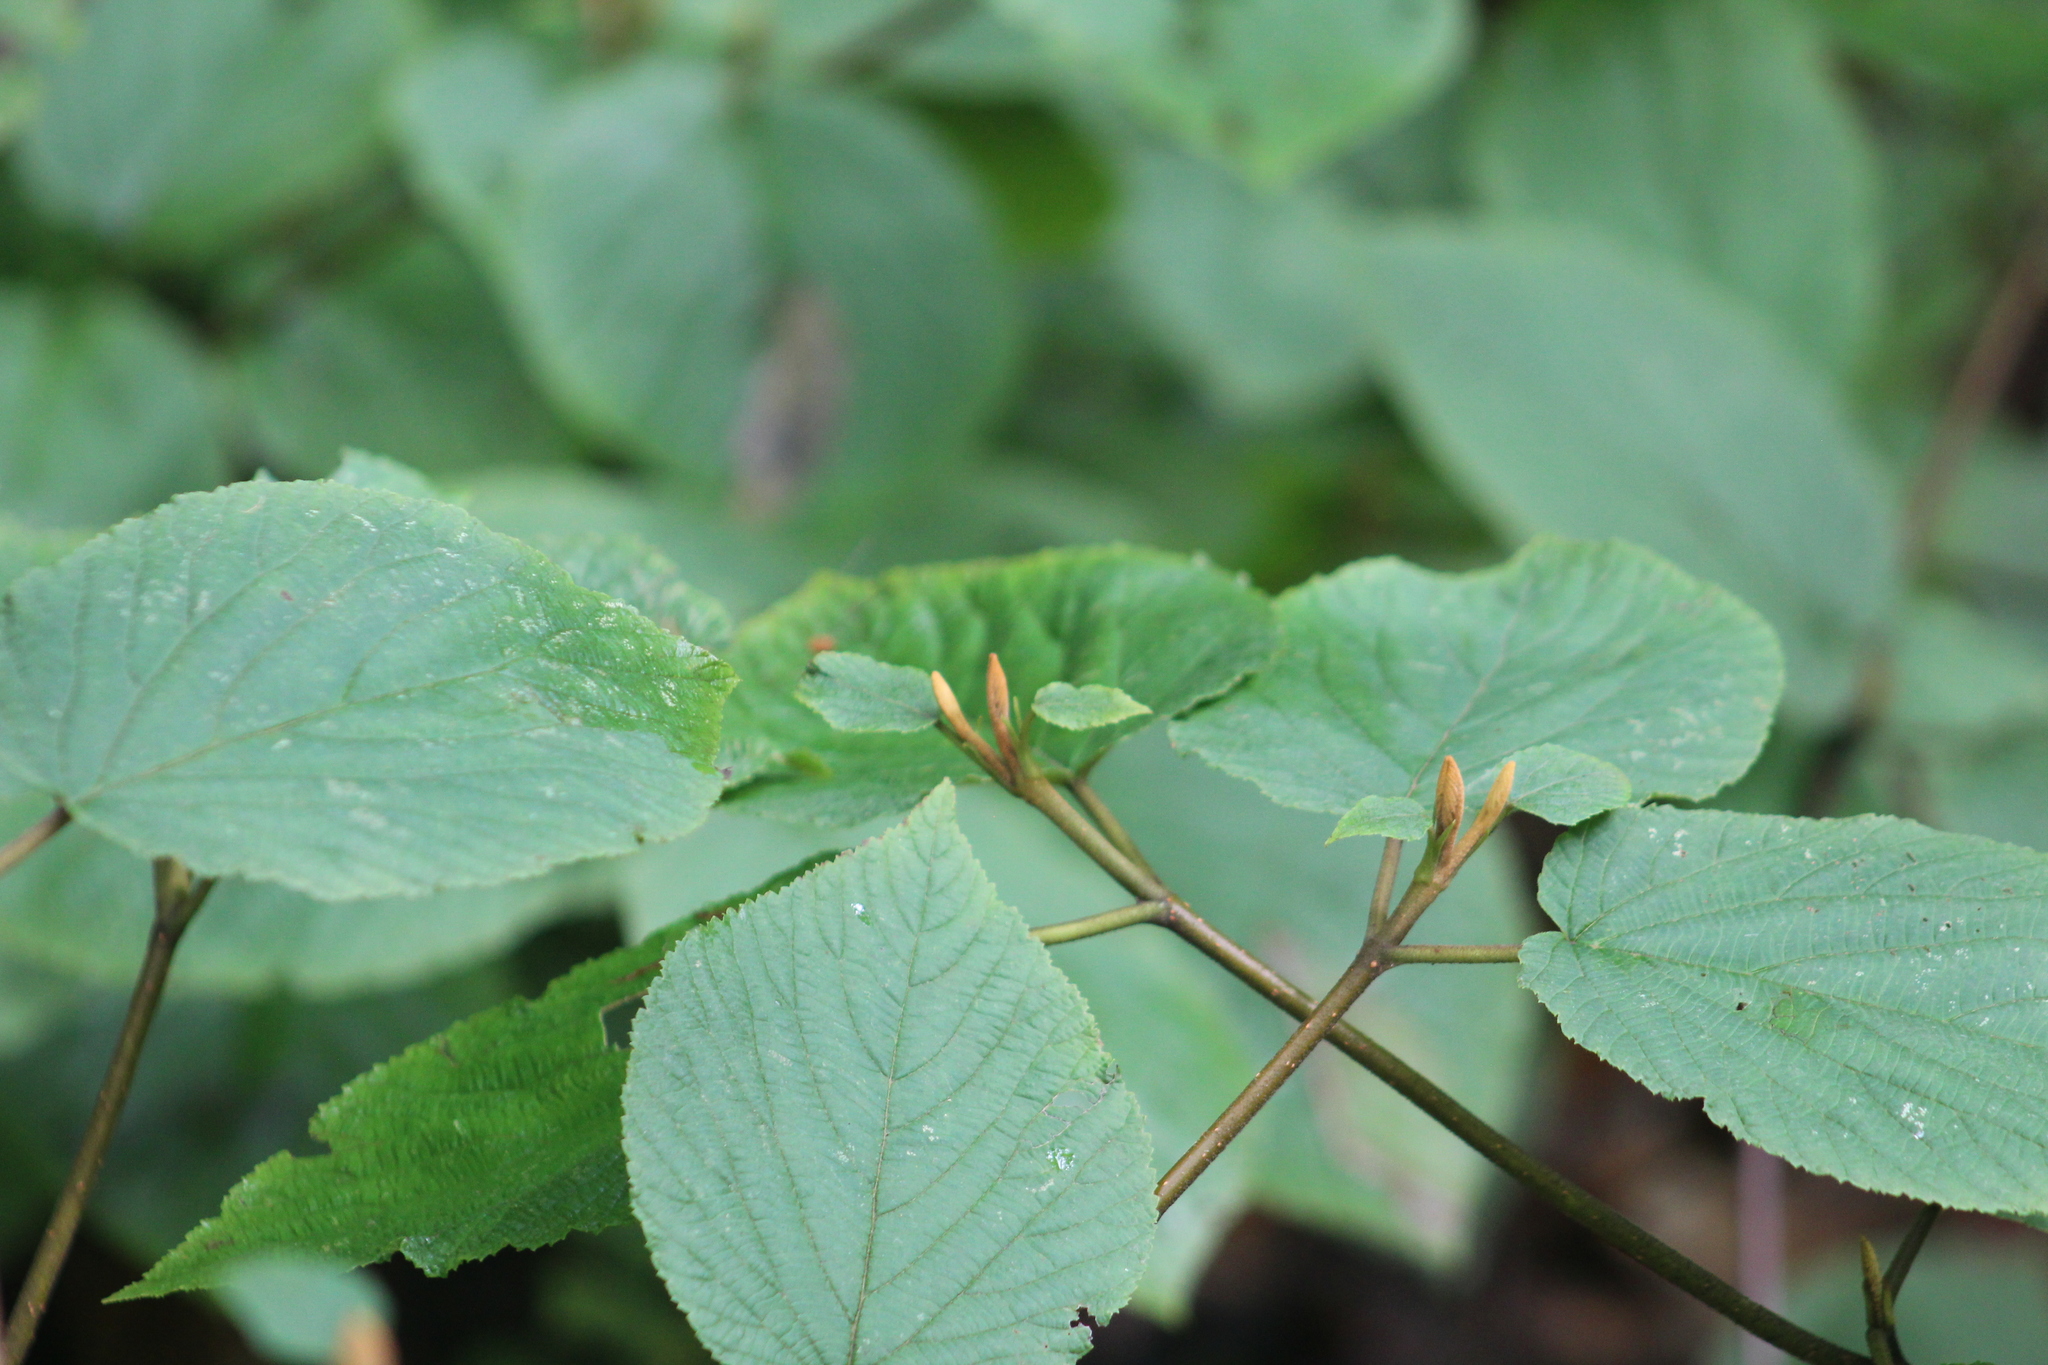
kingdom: Plantae
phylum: Tracheophyta
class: Magnoliopsida
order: Dipsacales
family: Viburnaceae
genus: Viburnum
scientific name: Viburnum lantanoides
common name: Hobblebush
